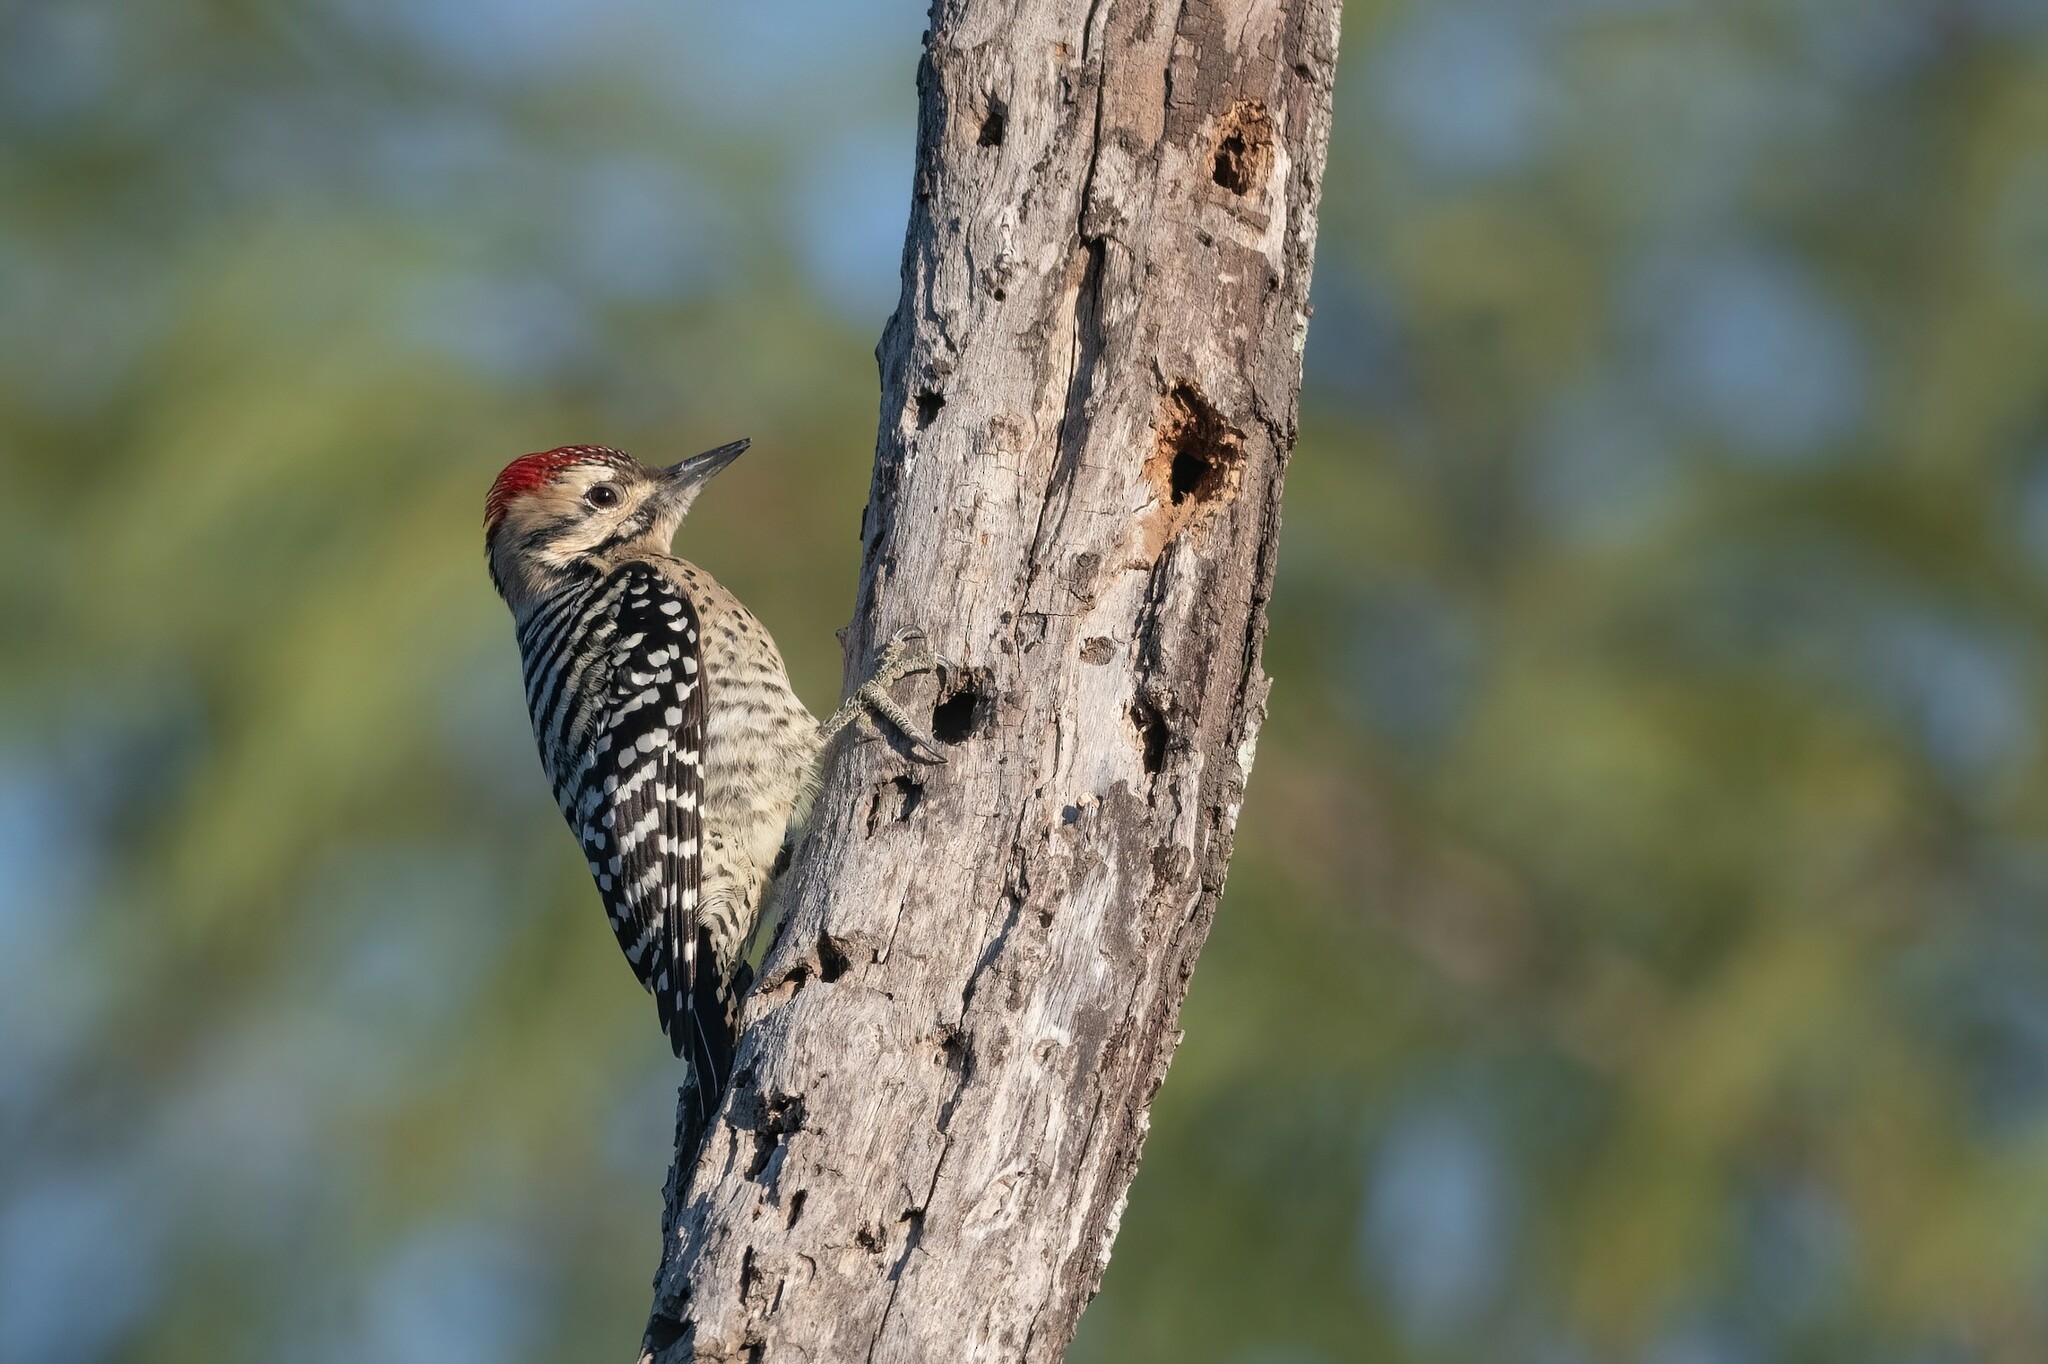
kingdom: Animalia
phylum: Chordata
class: Aves
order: Piciformes
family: Picidae
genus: Dryobates
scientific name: Dryobates scalaris
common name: Ladder-backed woodpecker
